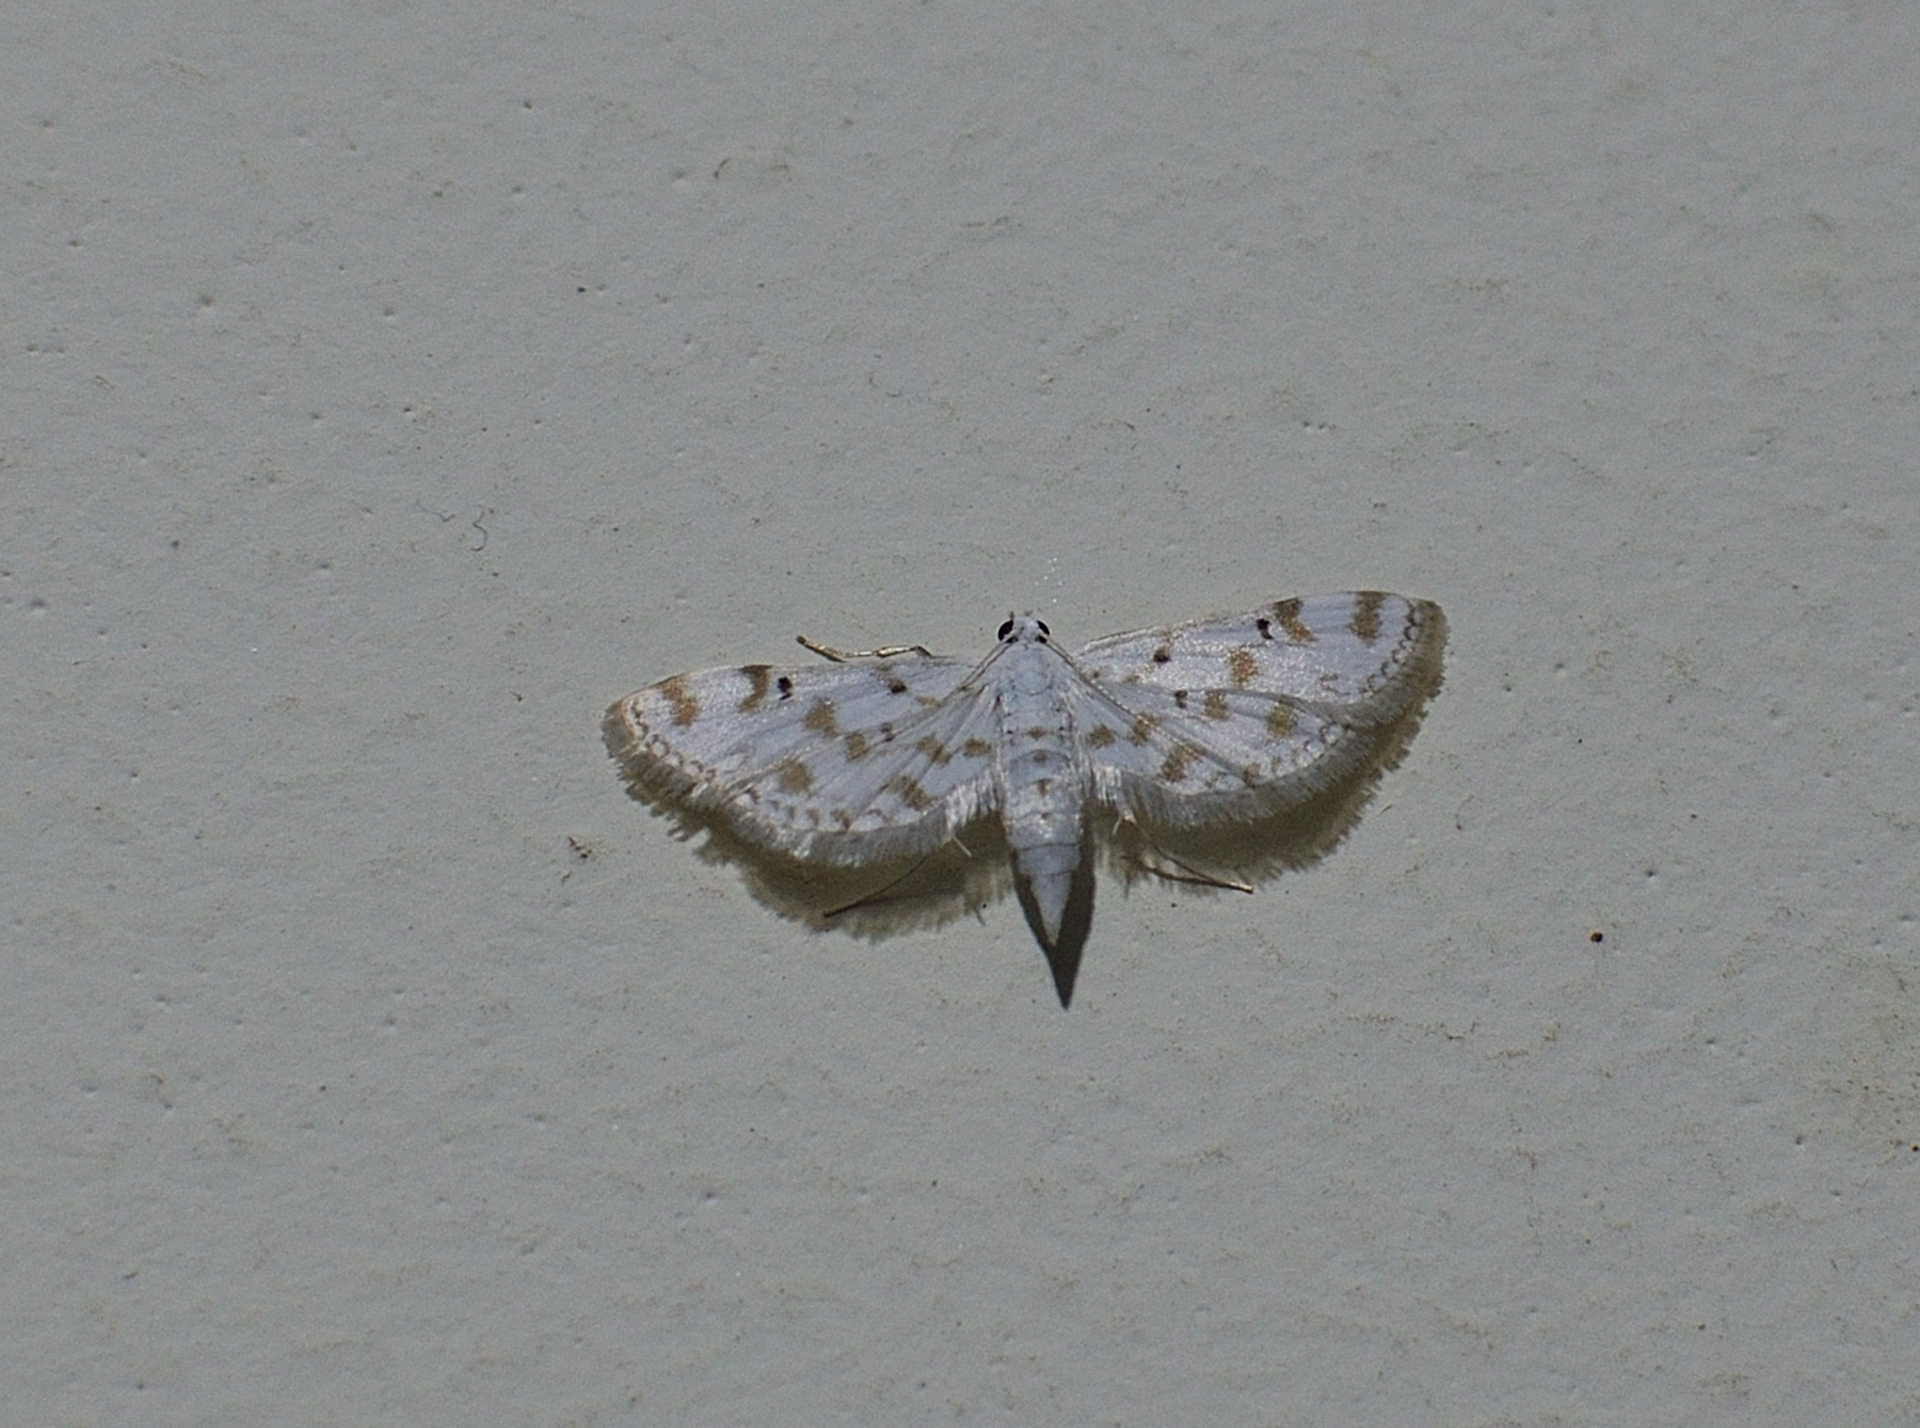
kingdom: Animalia
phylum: Arthropoda
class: Insecta
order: Lepidoptera
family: Crambidae
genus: Parapoynx
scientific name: Parapoynx stagnalis
